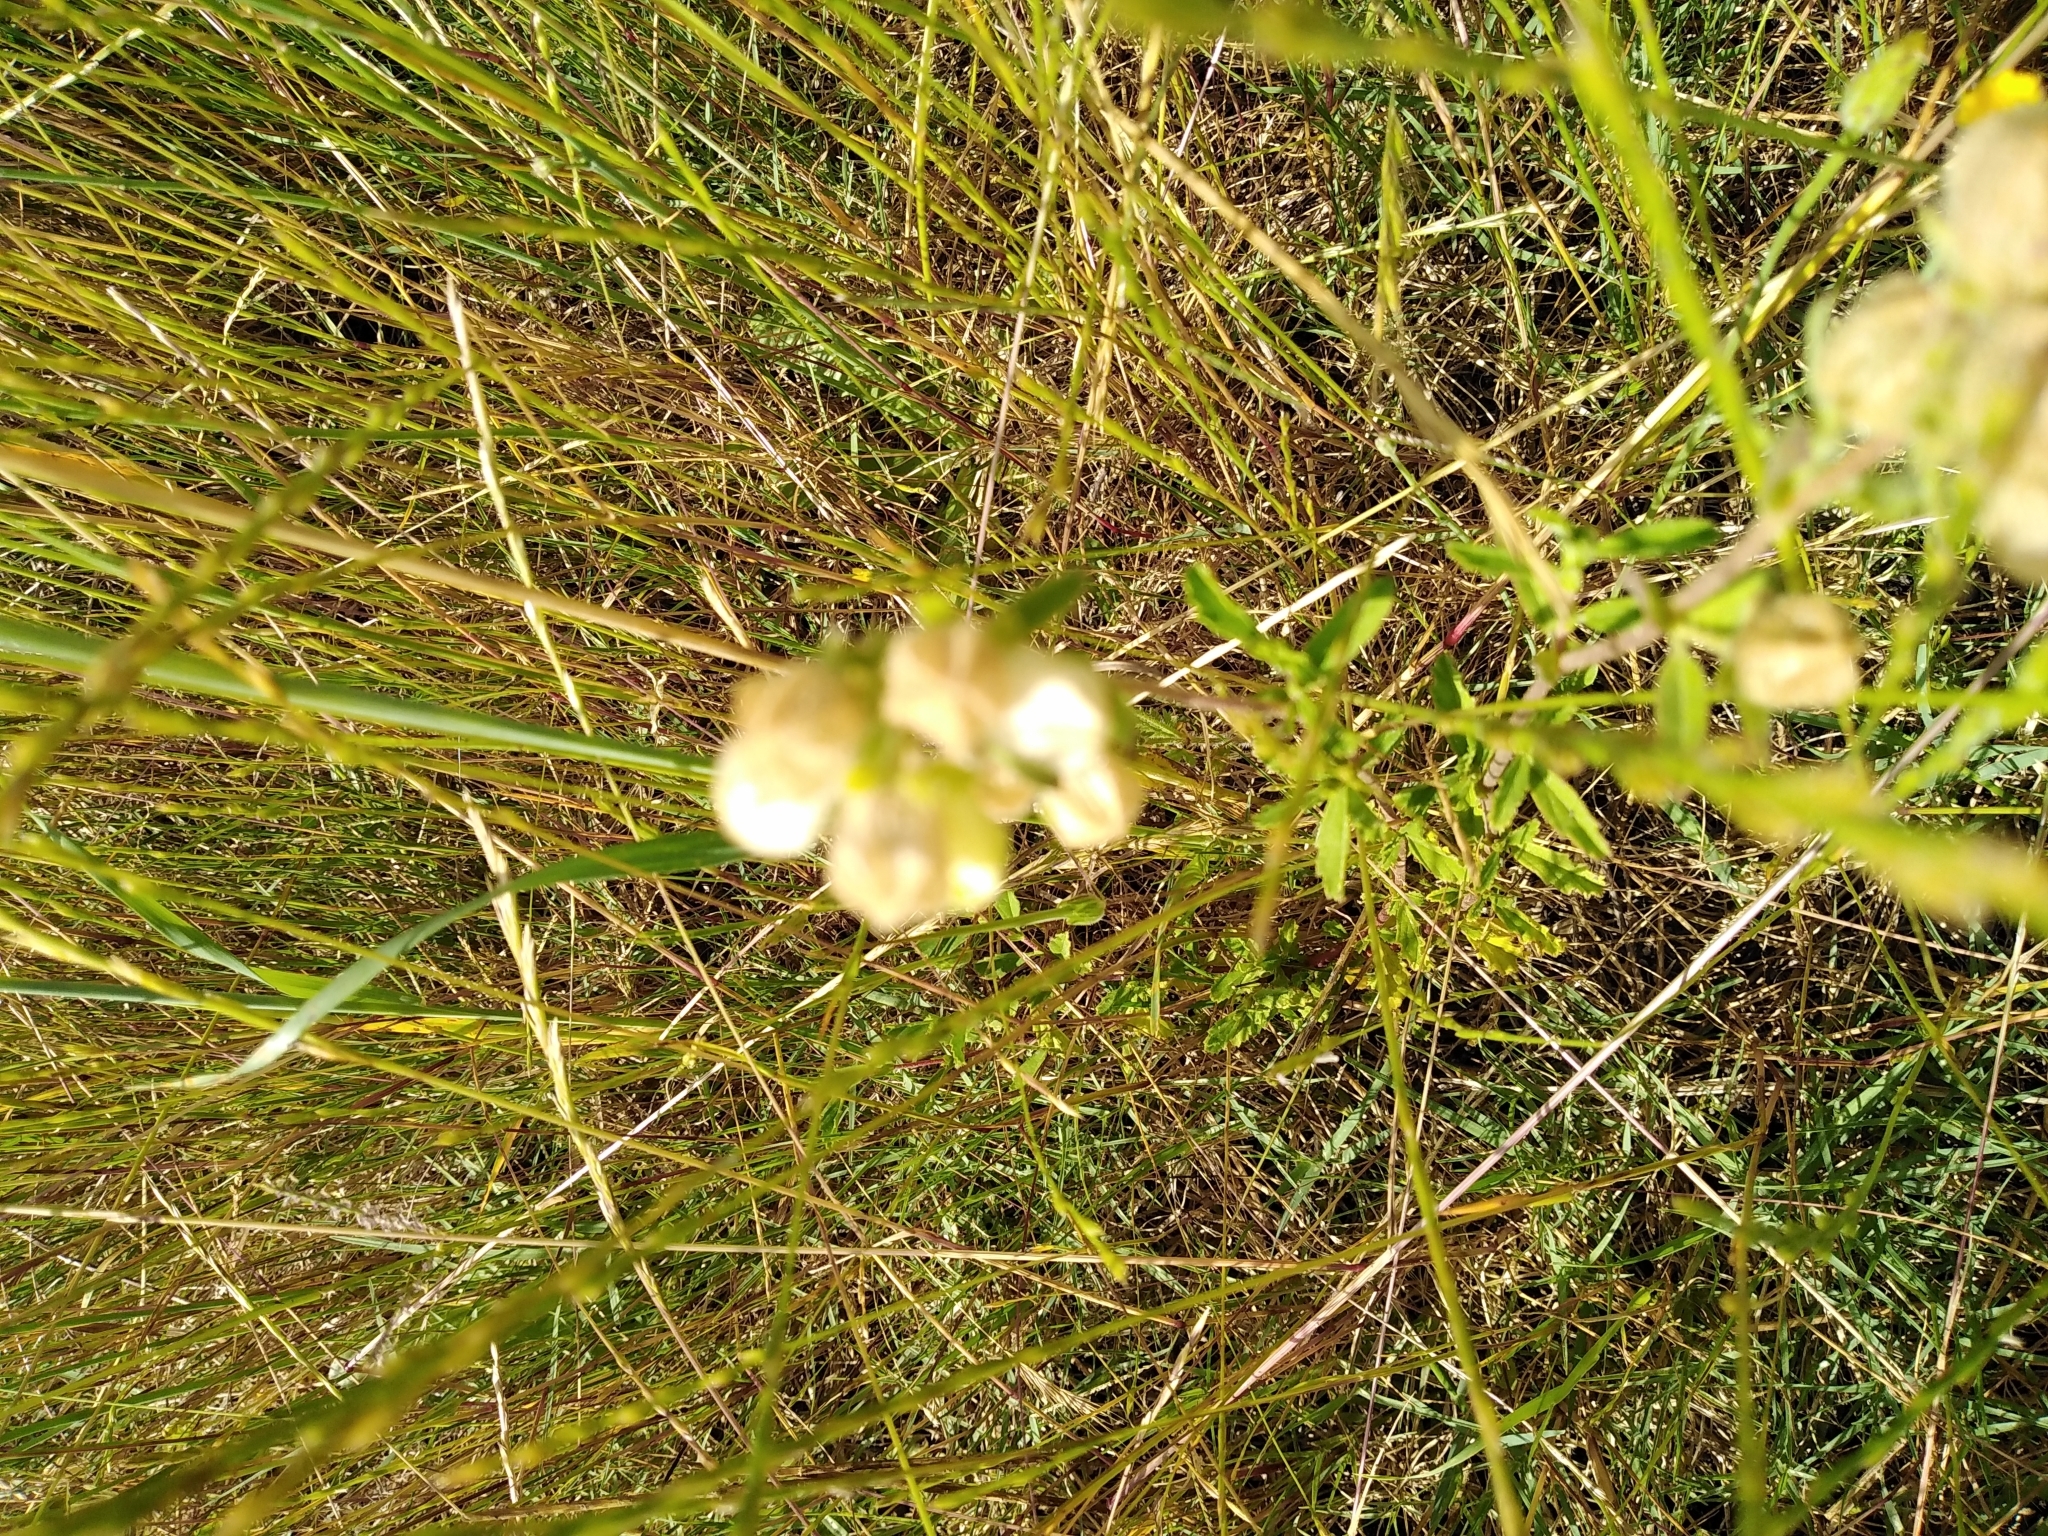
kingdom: Plantae
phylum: Tracheophyta
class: Magnoliopsida
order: Malvales
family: Malvaceae
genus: Hermannia
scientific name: Hermannia hyssopifolia
